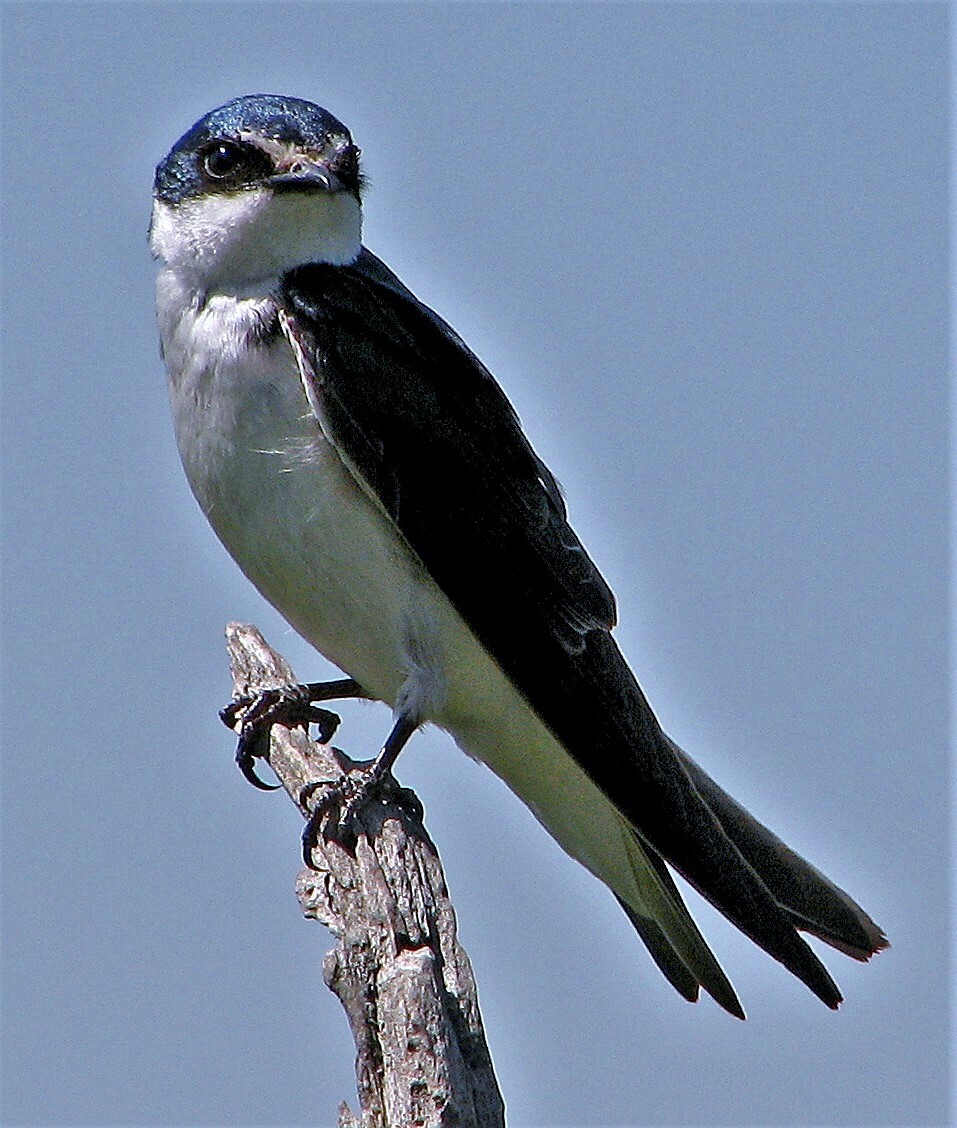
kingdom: Animalia
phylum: Chordata
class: Aves
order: Passeriformes
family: Hirundinidae
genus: Tachycineta
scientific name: Tachycineta leucorrhoa
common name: White-rumped swallow
